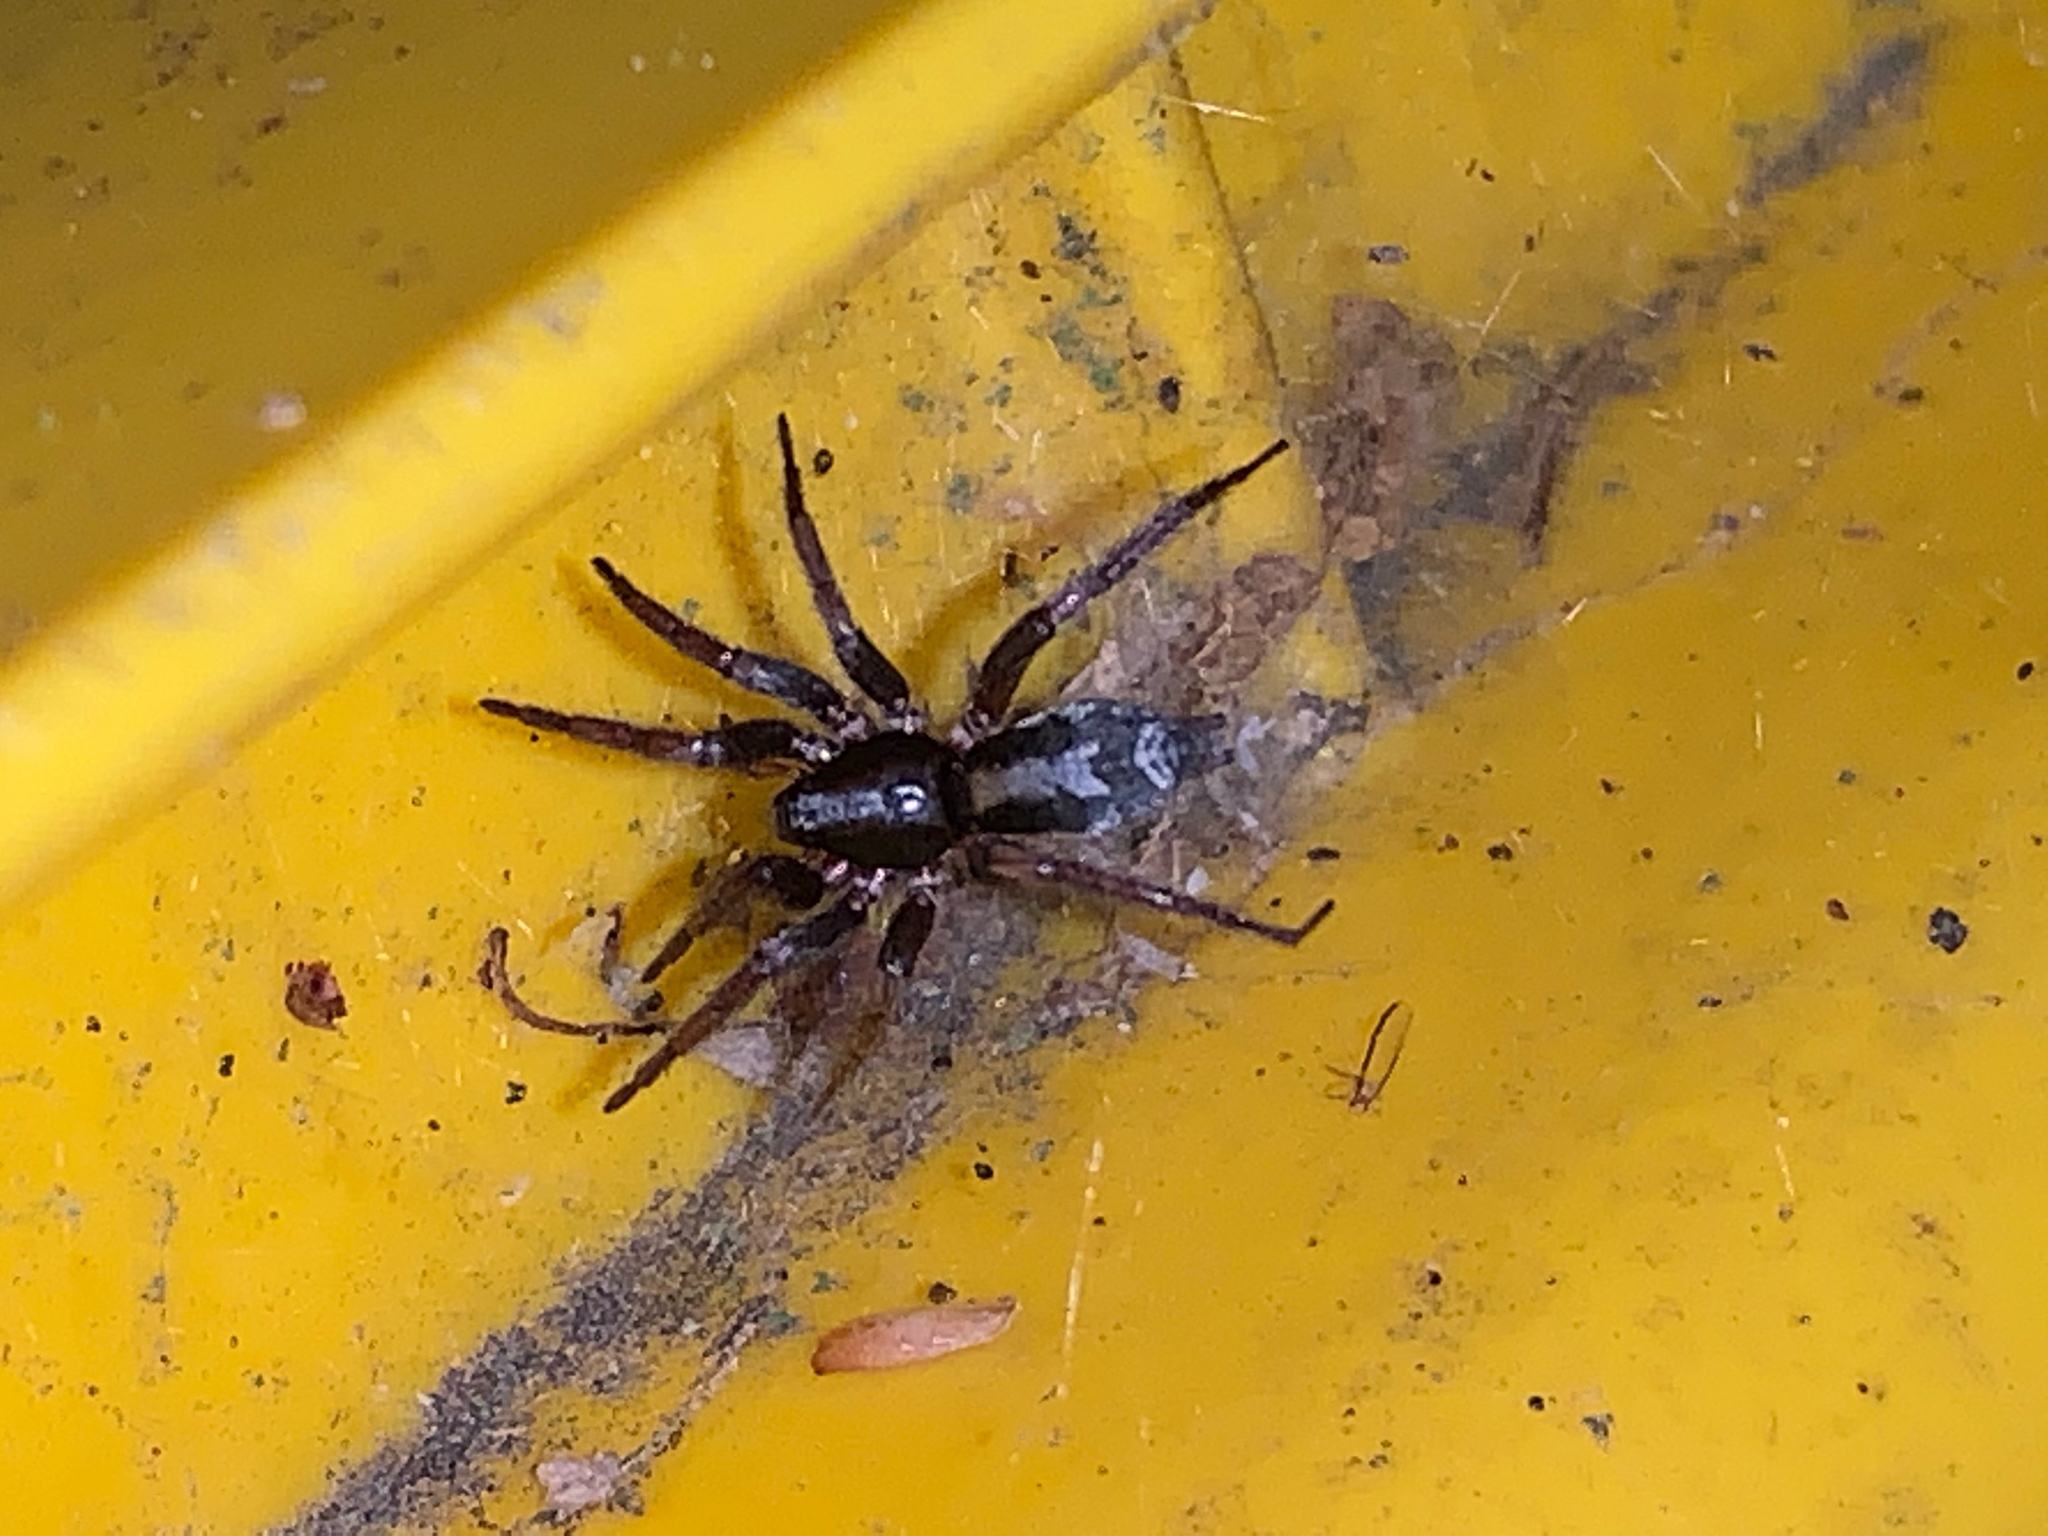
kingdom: Animalia
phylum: Arthropoda
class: Arachnida
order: Araneae
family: Gnaphosidae
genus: Herpyllus
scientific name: Herpyllus ecclesiasticus
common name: Eastern parson spider
